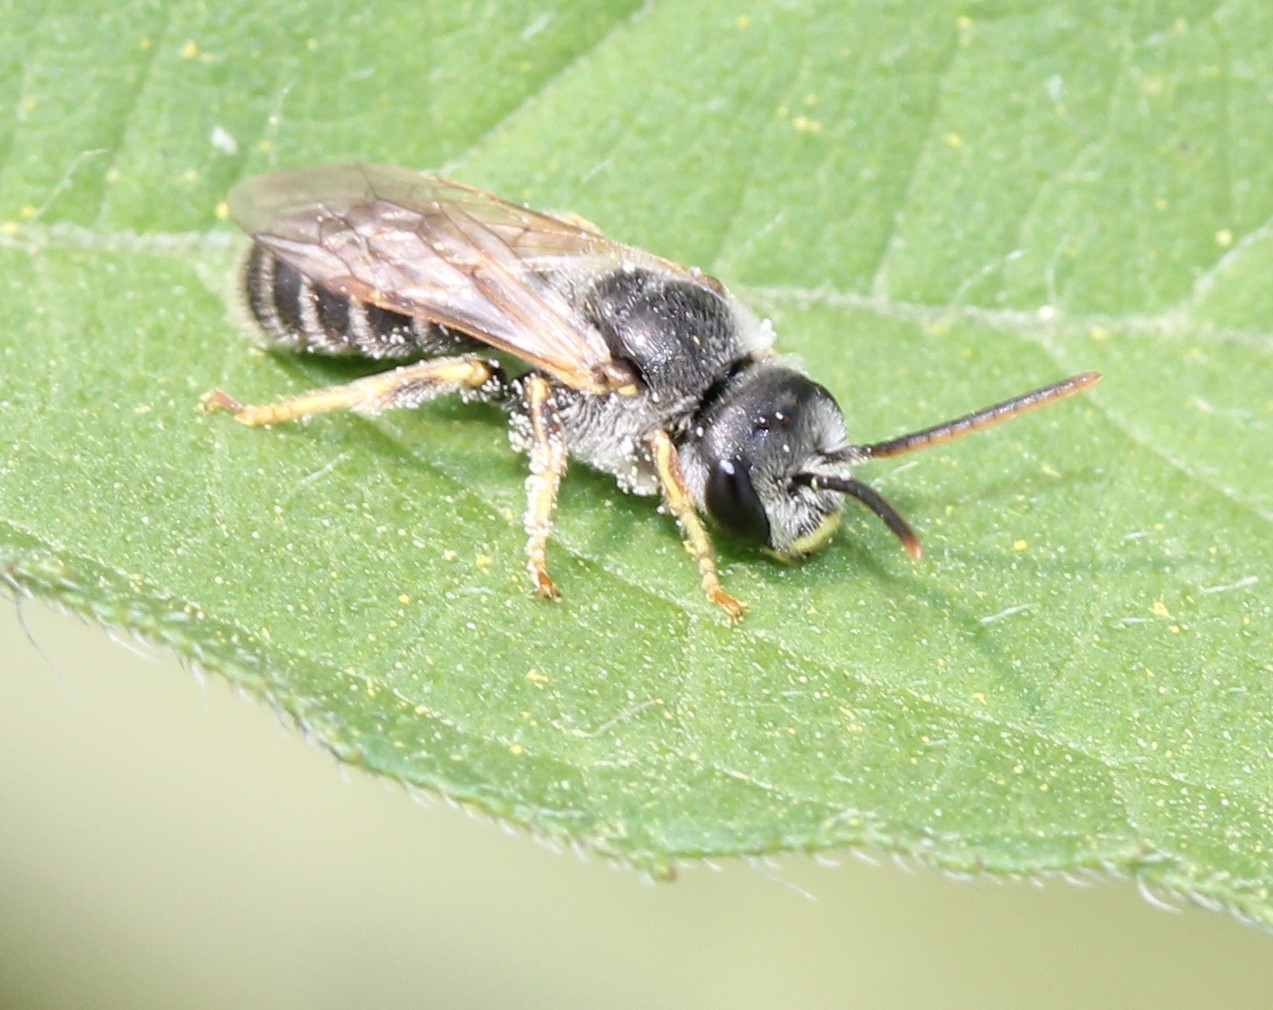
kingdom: Animalia
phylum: Arthropoda
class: Insecta
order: Hymenoptera
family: Halictidae
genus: Halictus
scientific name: Halictus ligatus
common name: Ligated furrow bee
